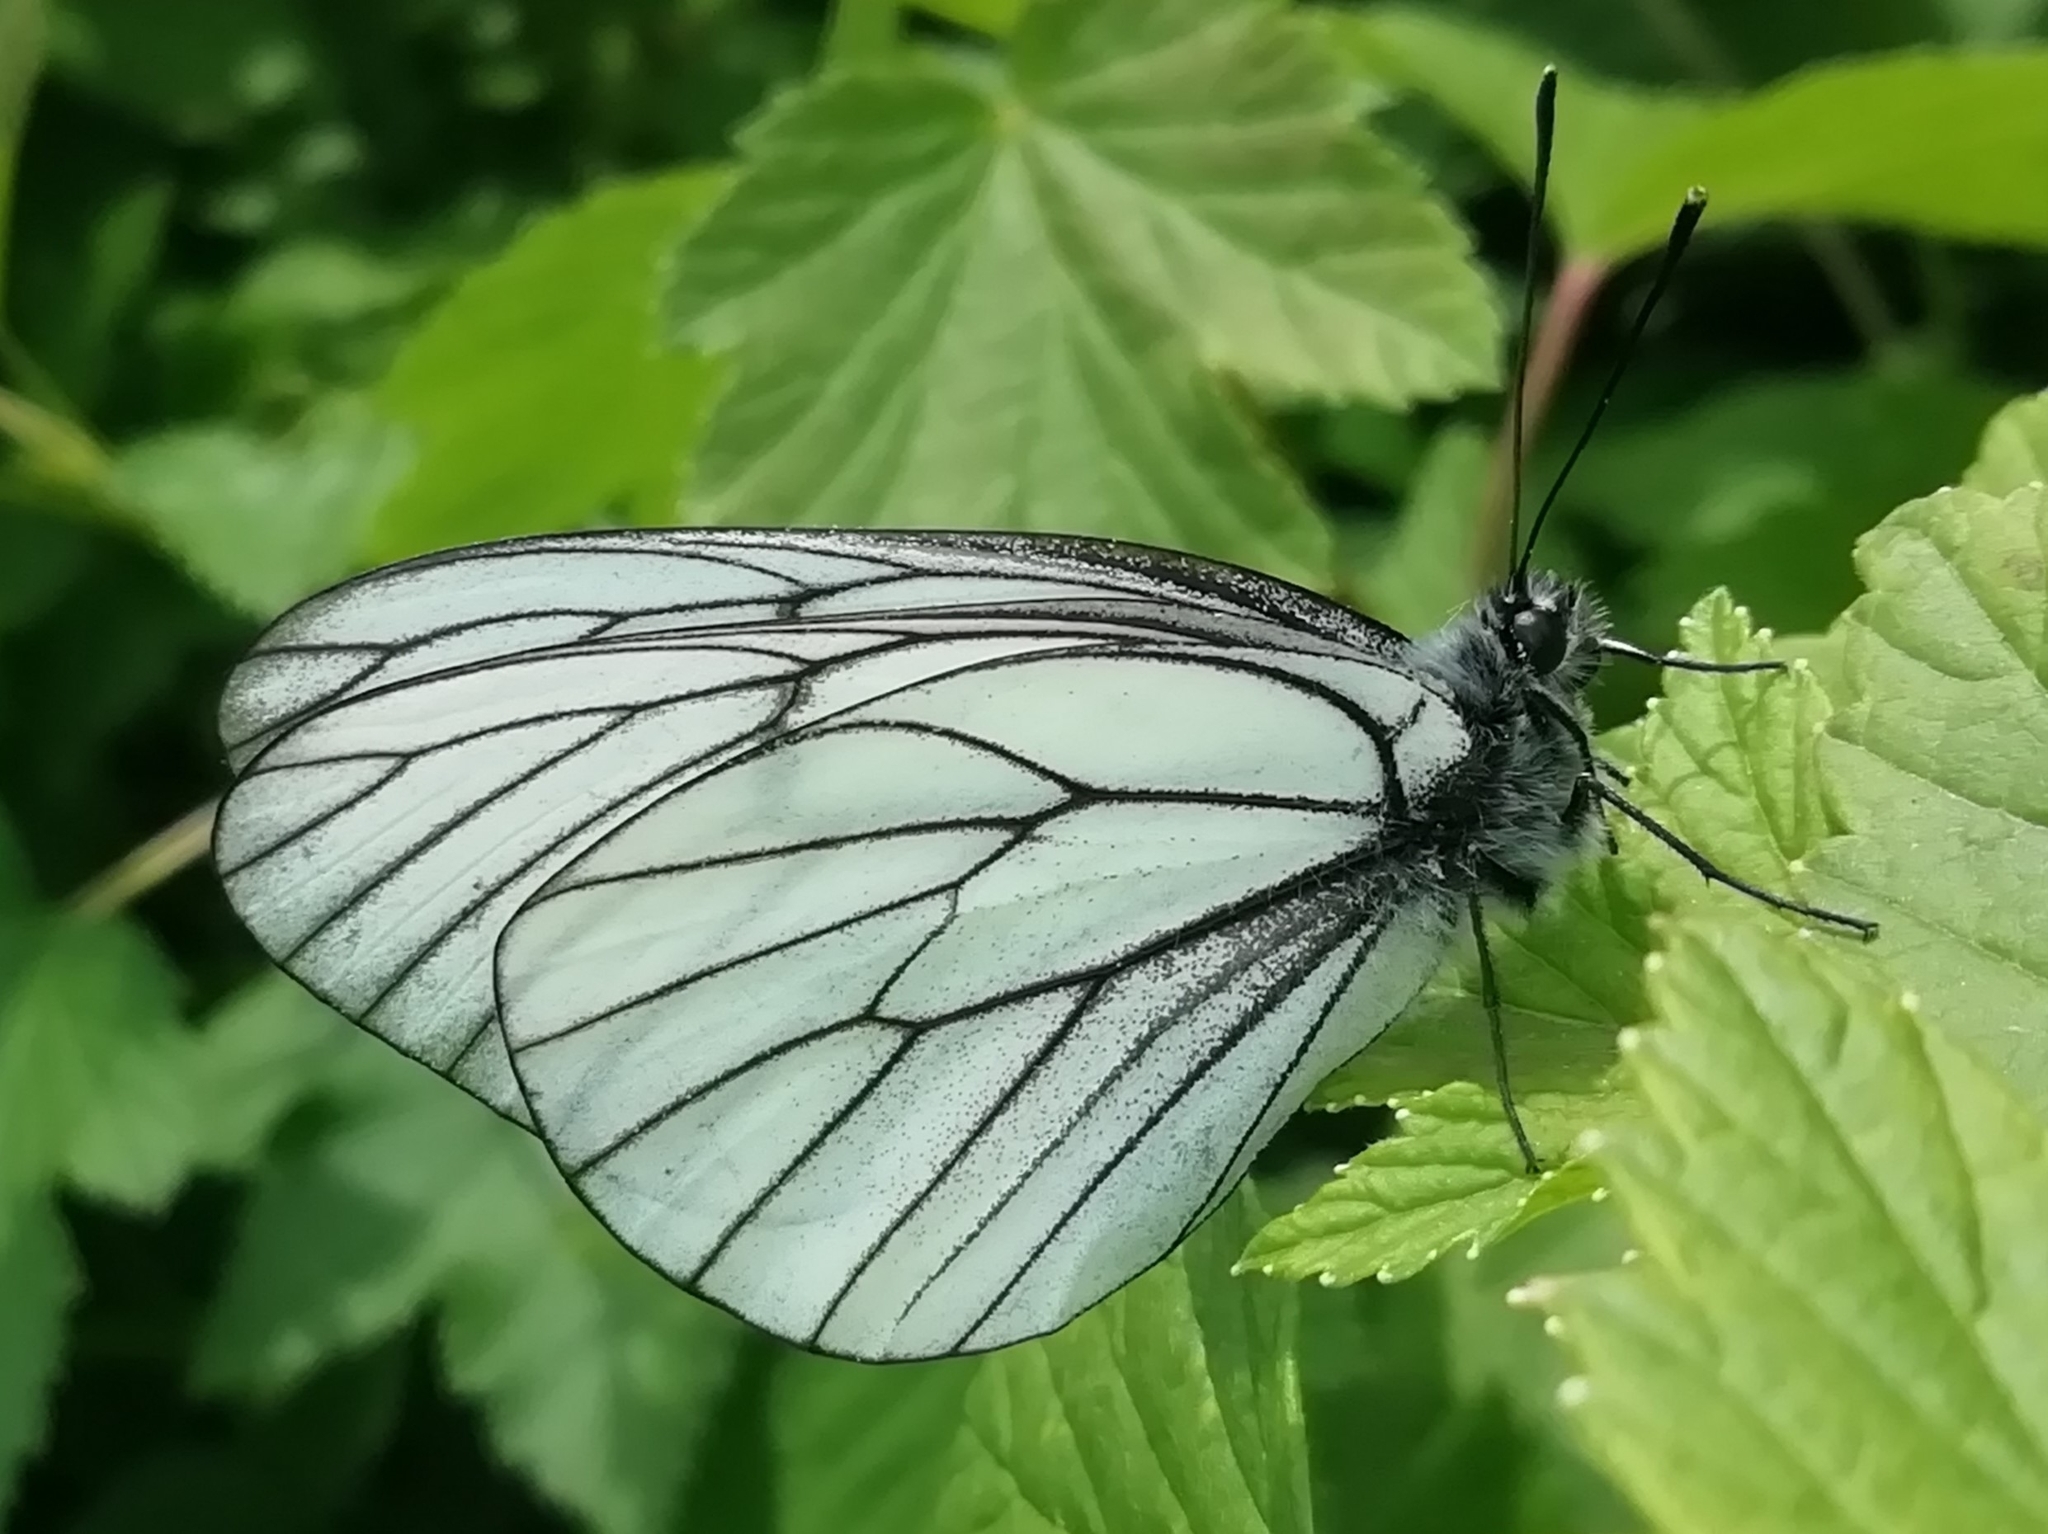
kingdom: Animalia
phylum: Arthropoda
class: Insecta
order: Lepidoptera
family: Pieridae
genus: Aporia
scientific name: Aporia crataegi
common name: Black-veined white
